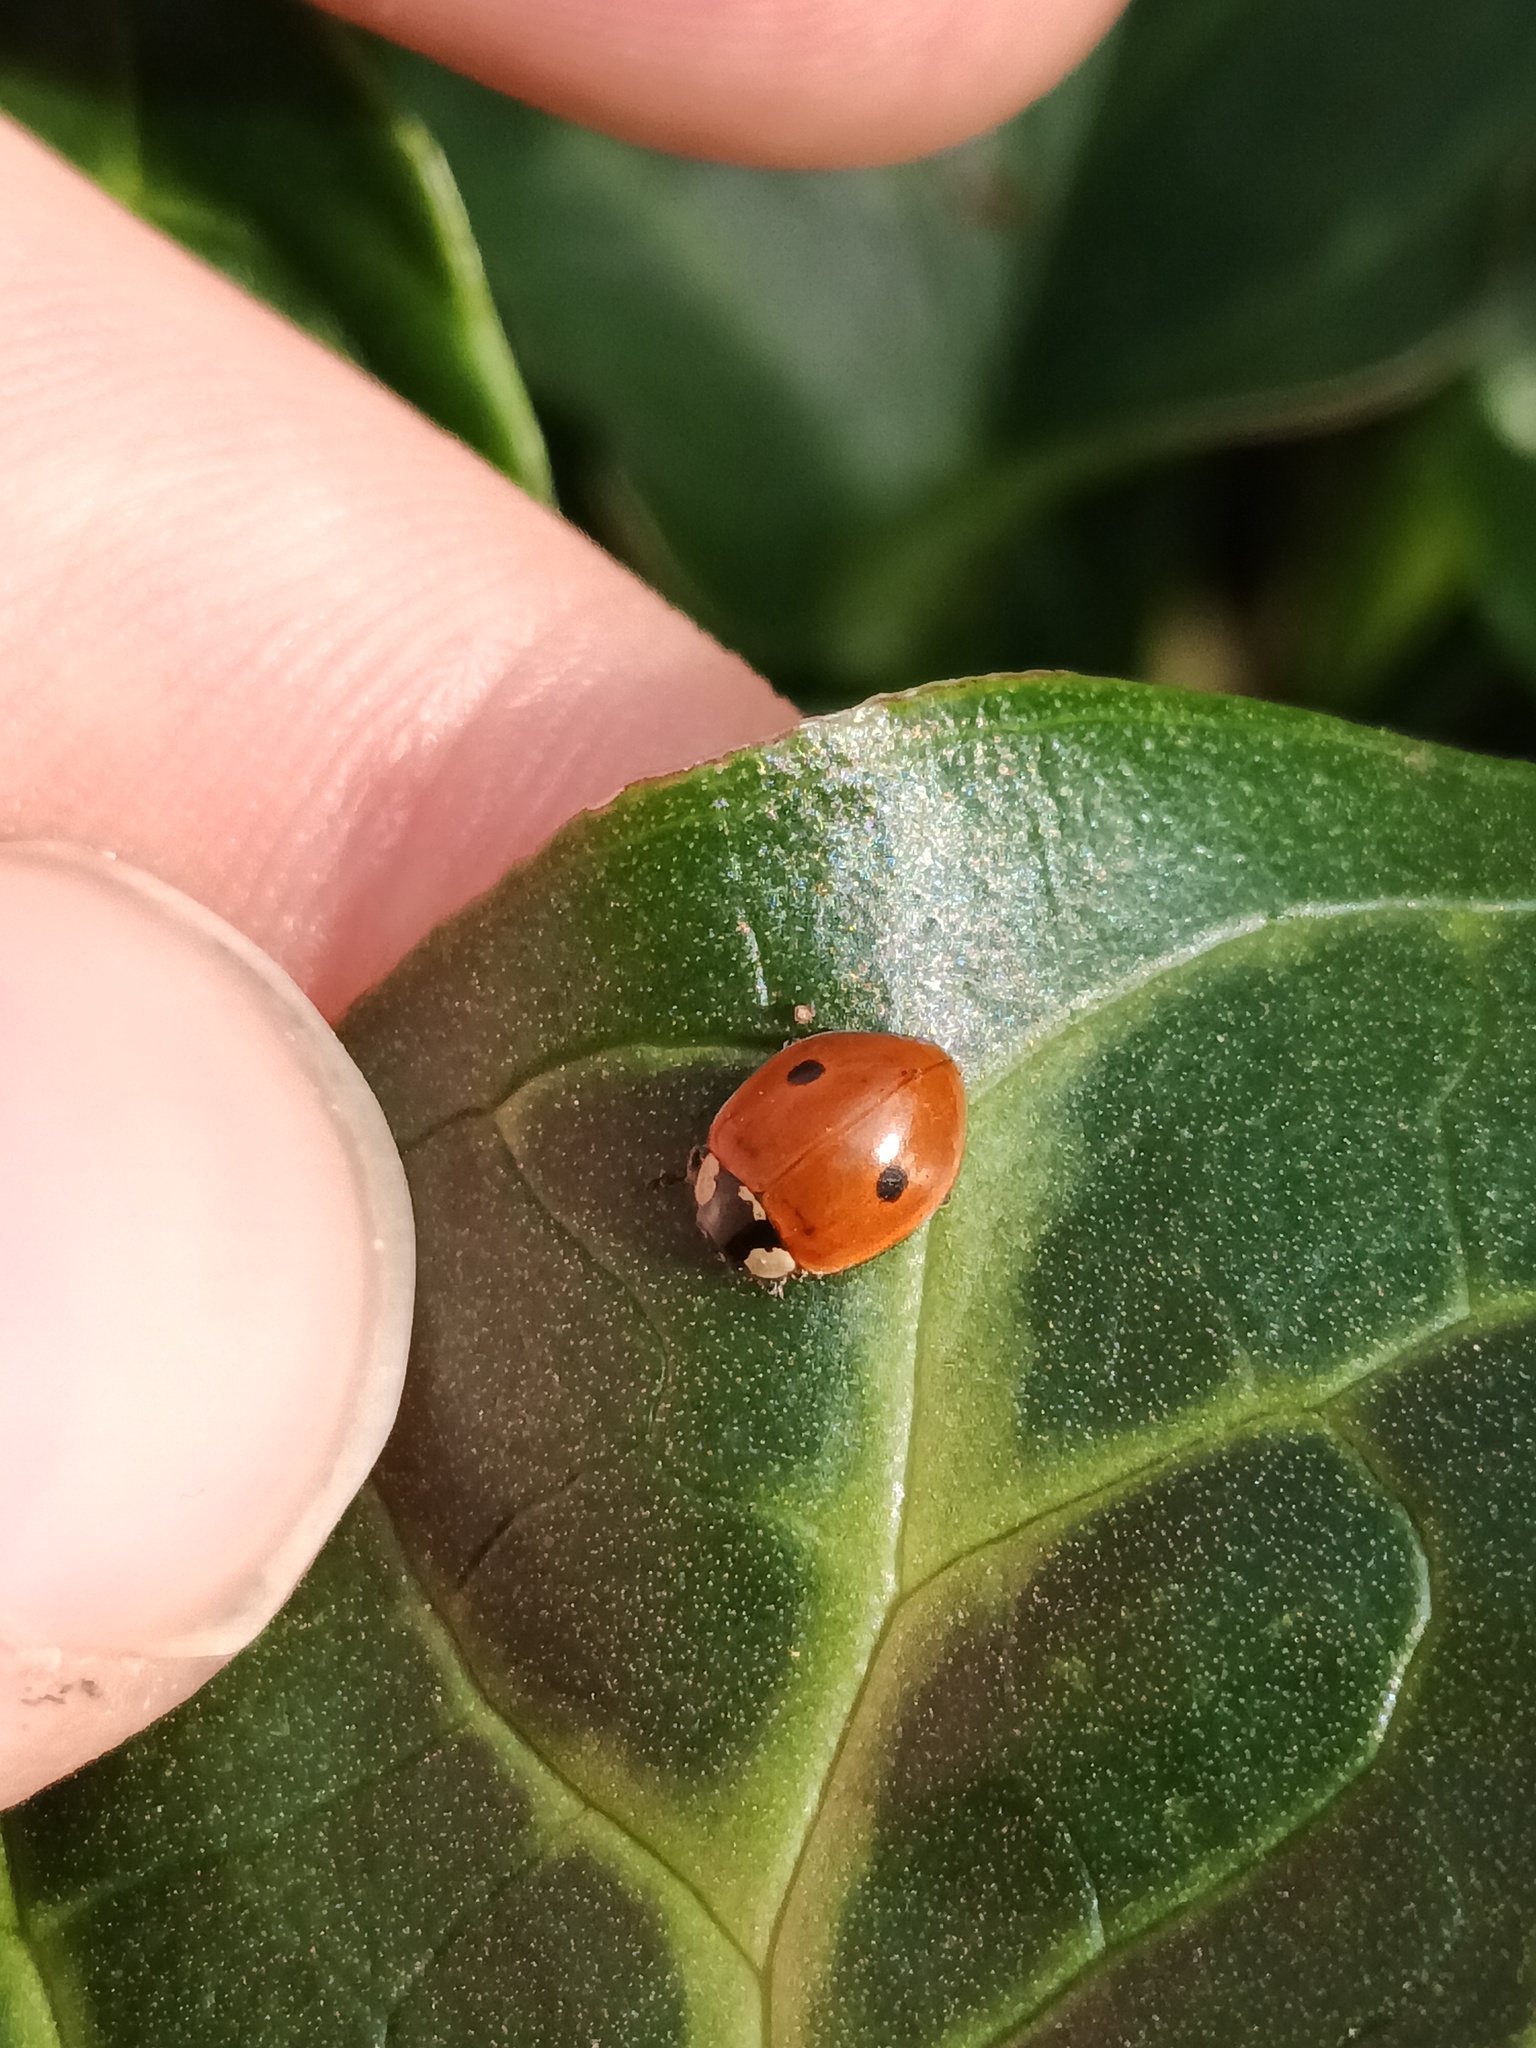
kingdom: Animalia
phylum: Arthropoda
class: Insecta
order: Coleoptera
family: Coccinellidae
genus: Adalia
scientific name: Adalia bipunctata
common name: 2-spot ladybird
